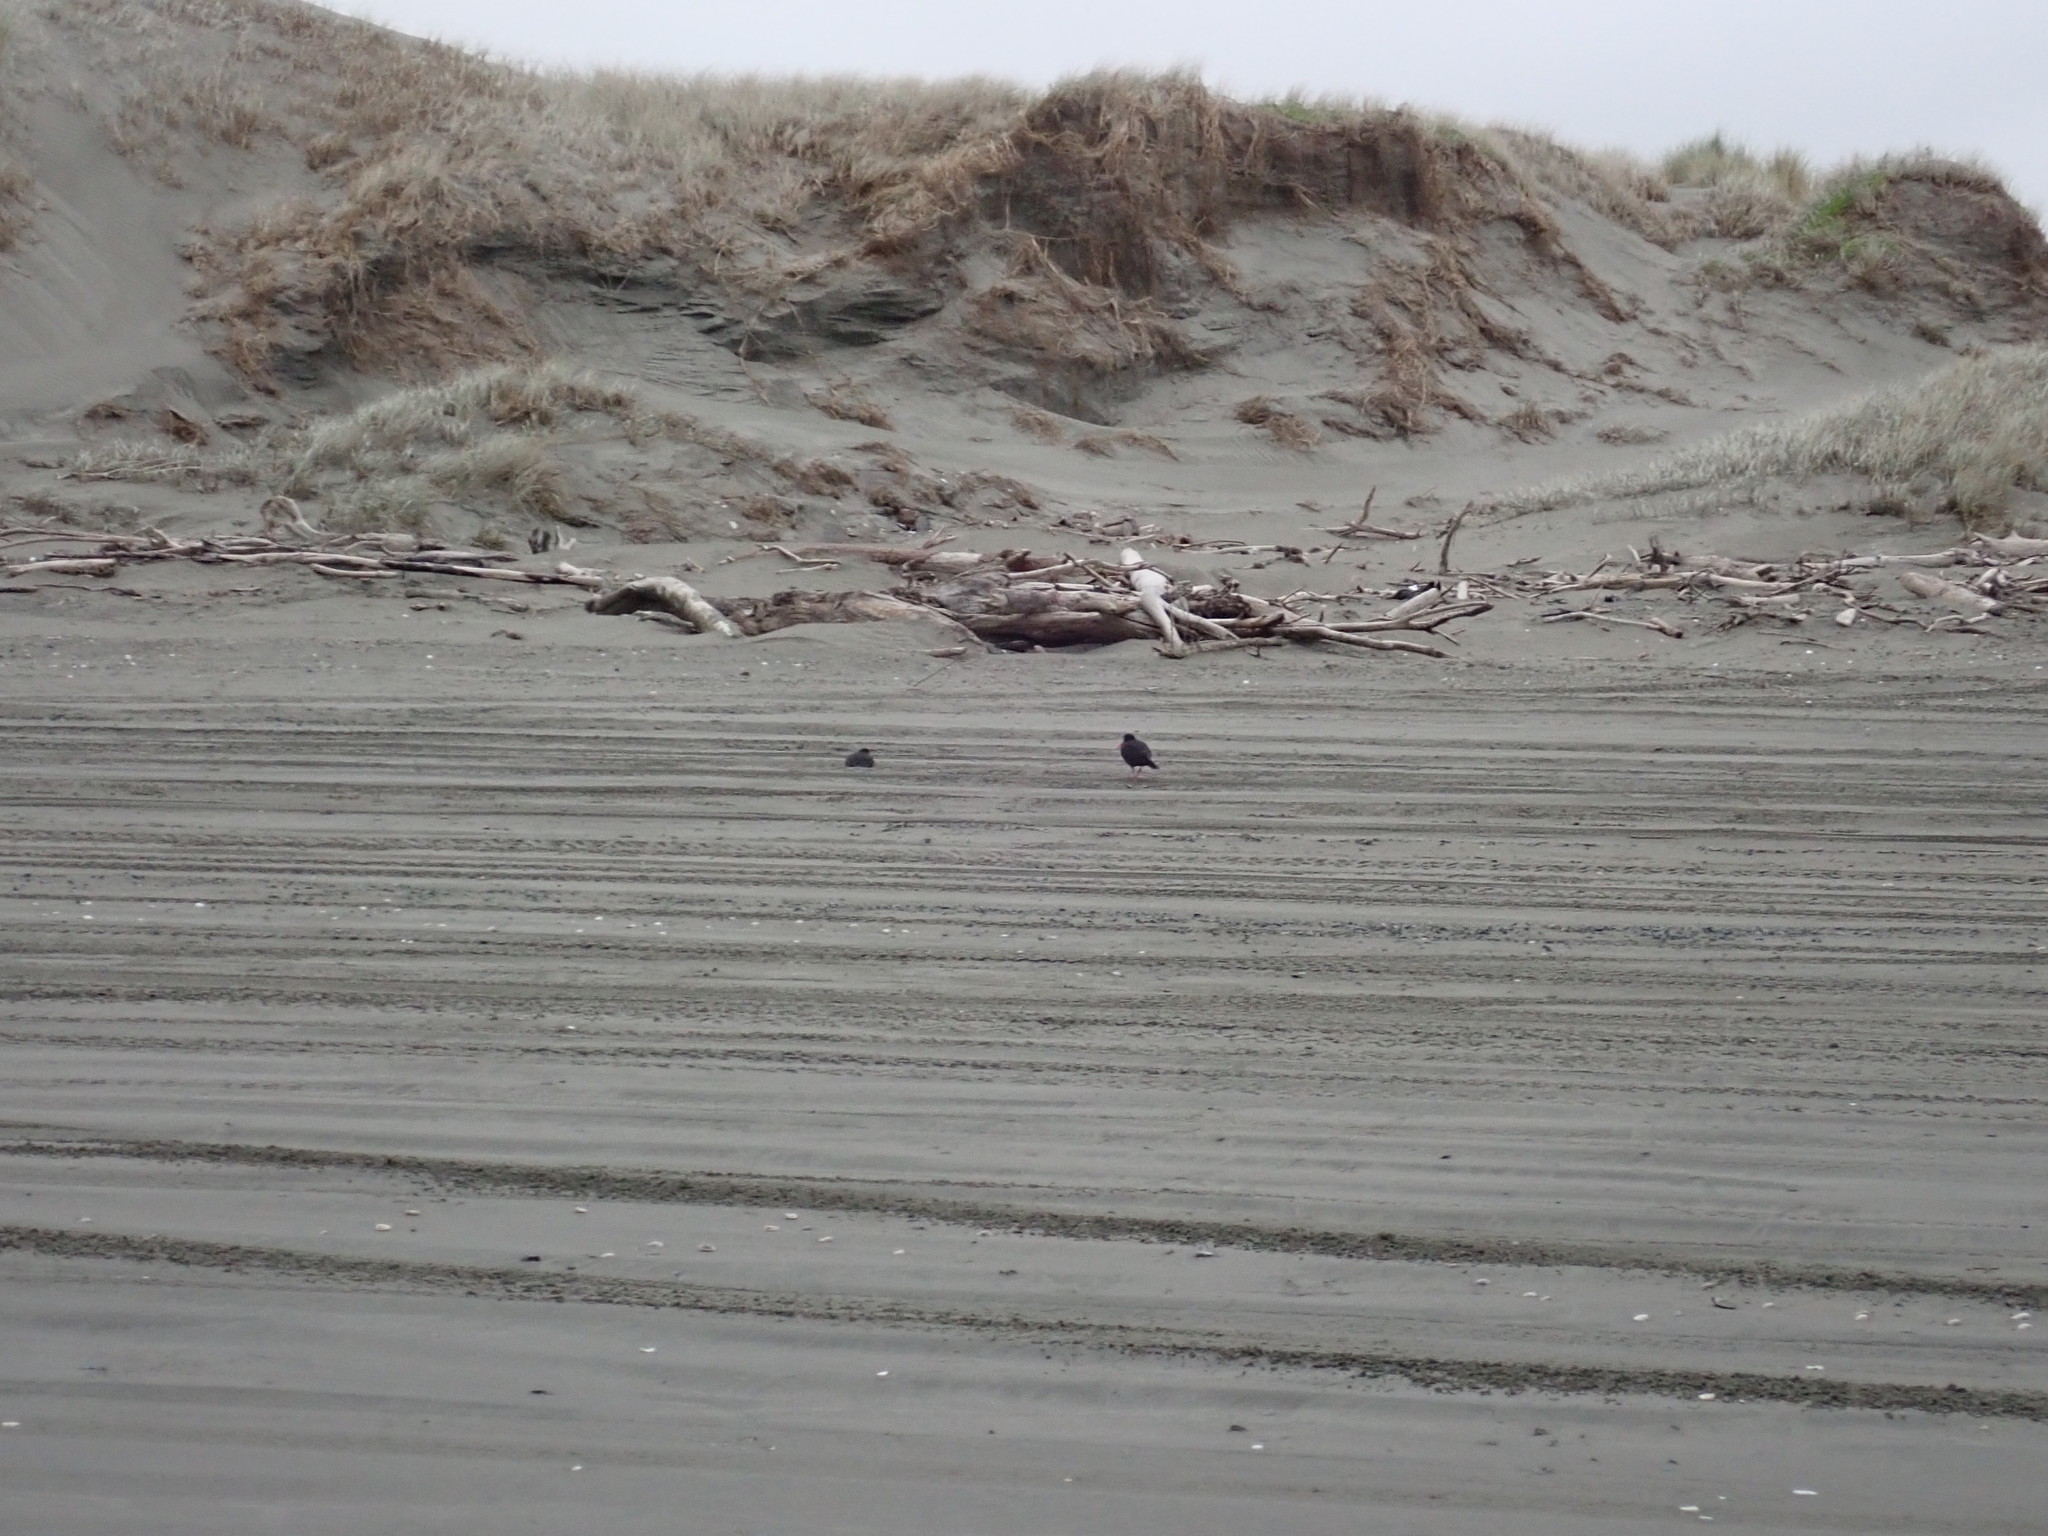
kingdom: Animalia
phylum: Chordata
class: Aves
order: Charadriiformes
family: Haematopodidae
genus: Haematopus
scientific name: Haematopus unicolor
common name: Variable oystercatcher
